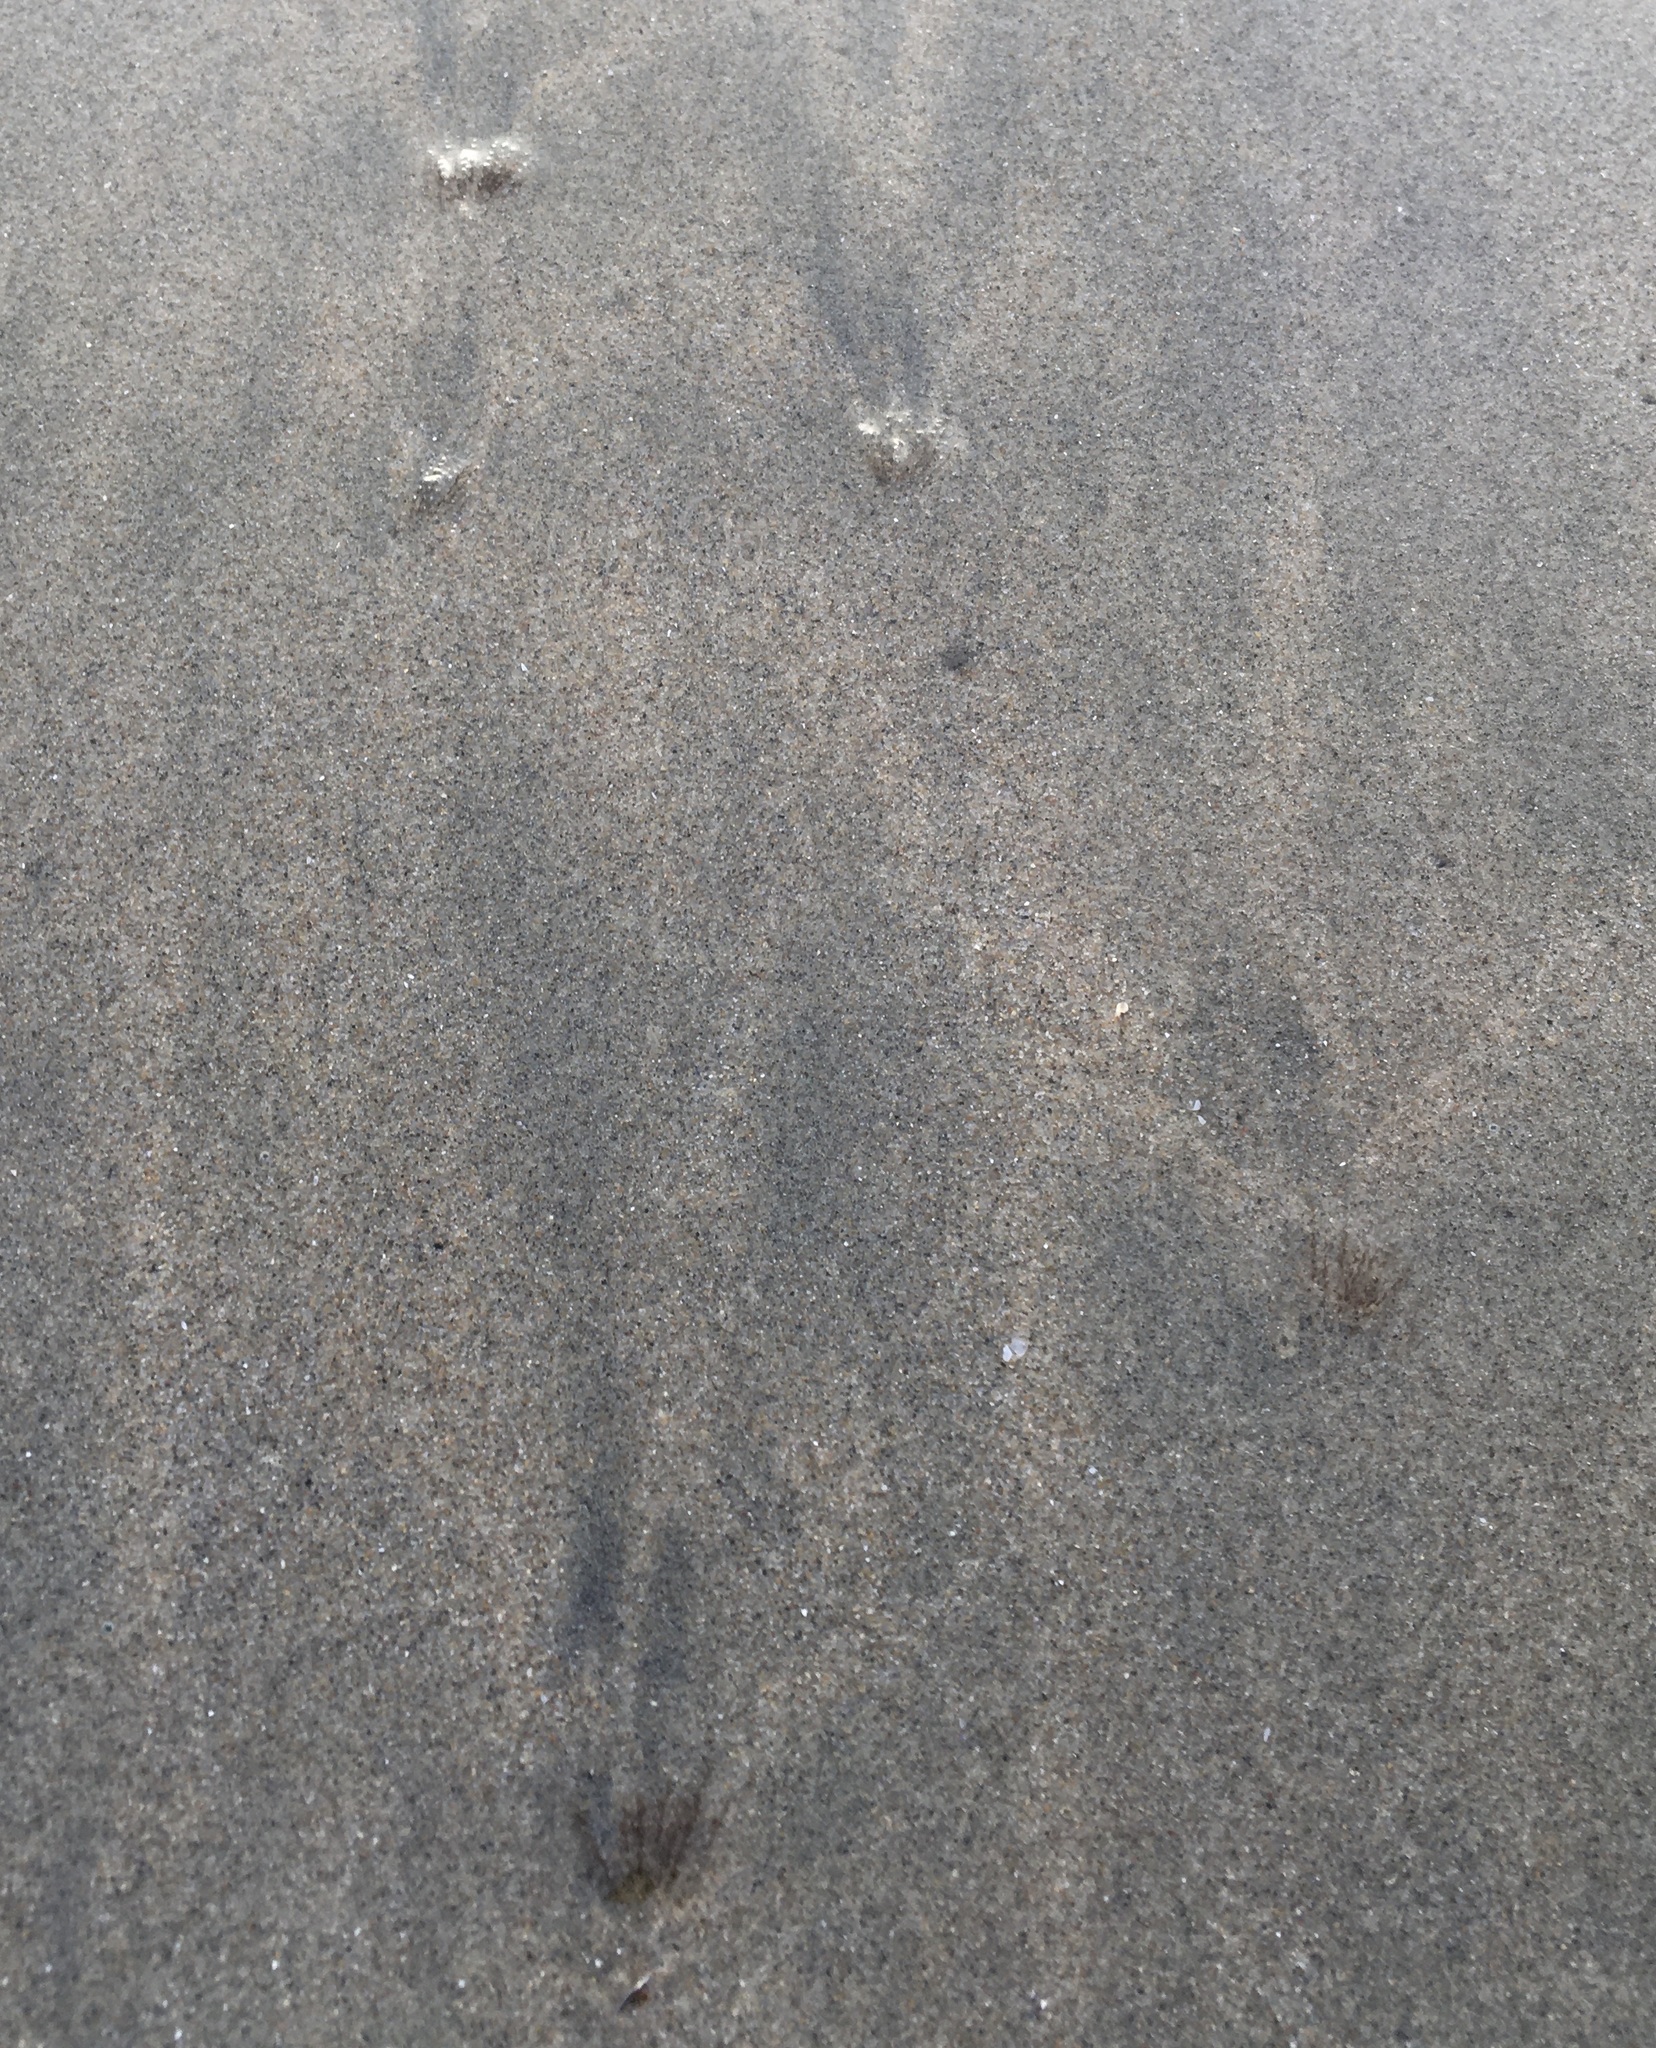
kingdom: Animalia
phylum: Cnidaria
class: Hydrozoa
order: Leptothecata
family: Lovenellidae
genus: Eucheilota
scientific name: Eucheilota bakeri
